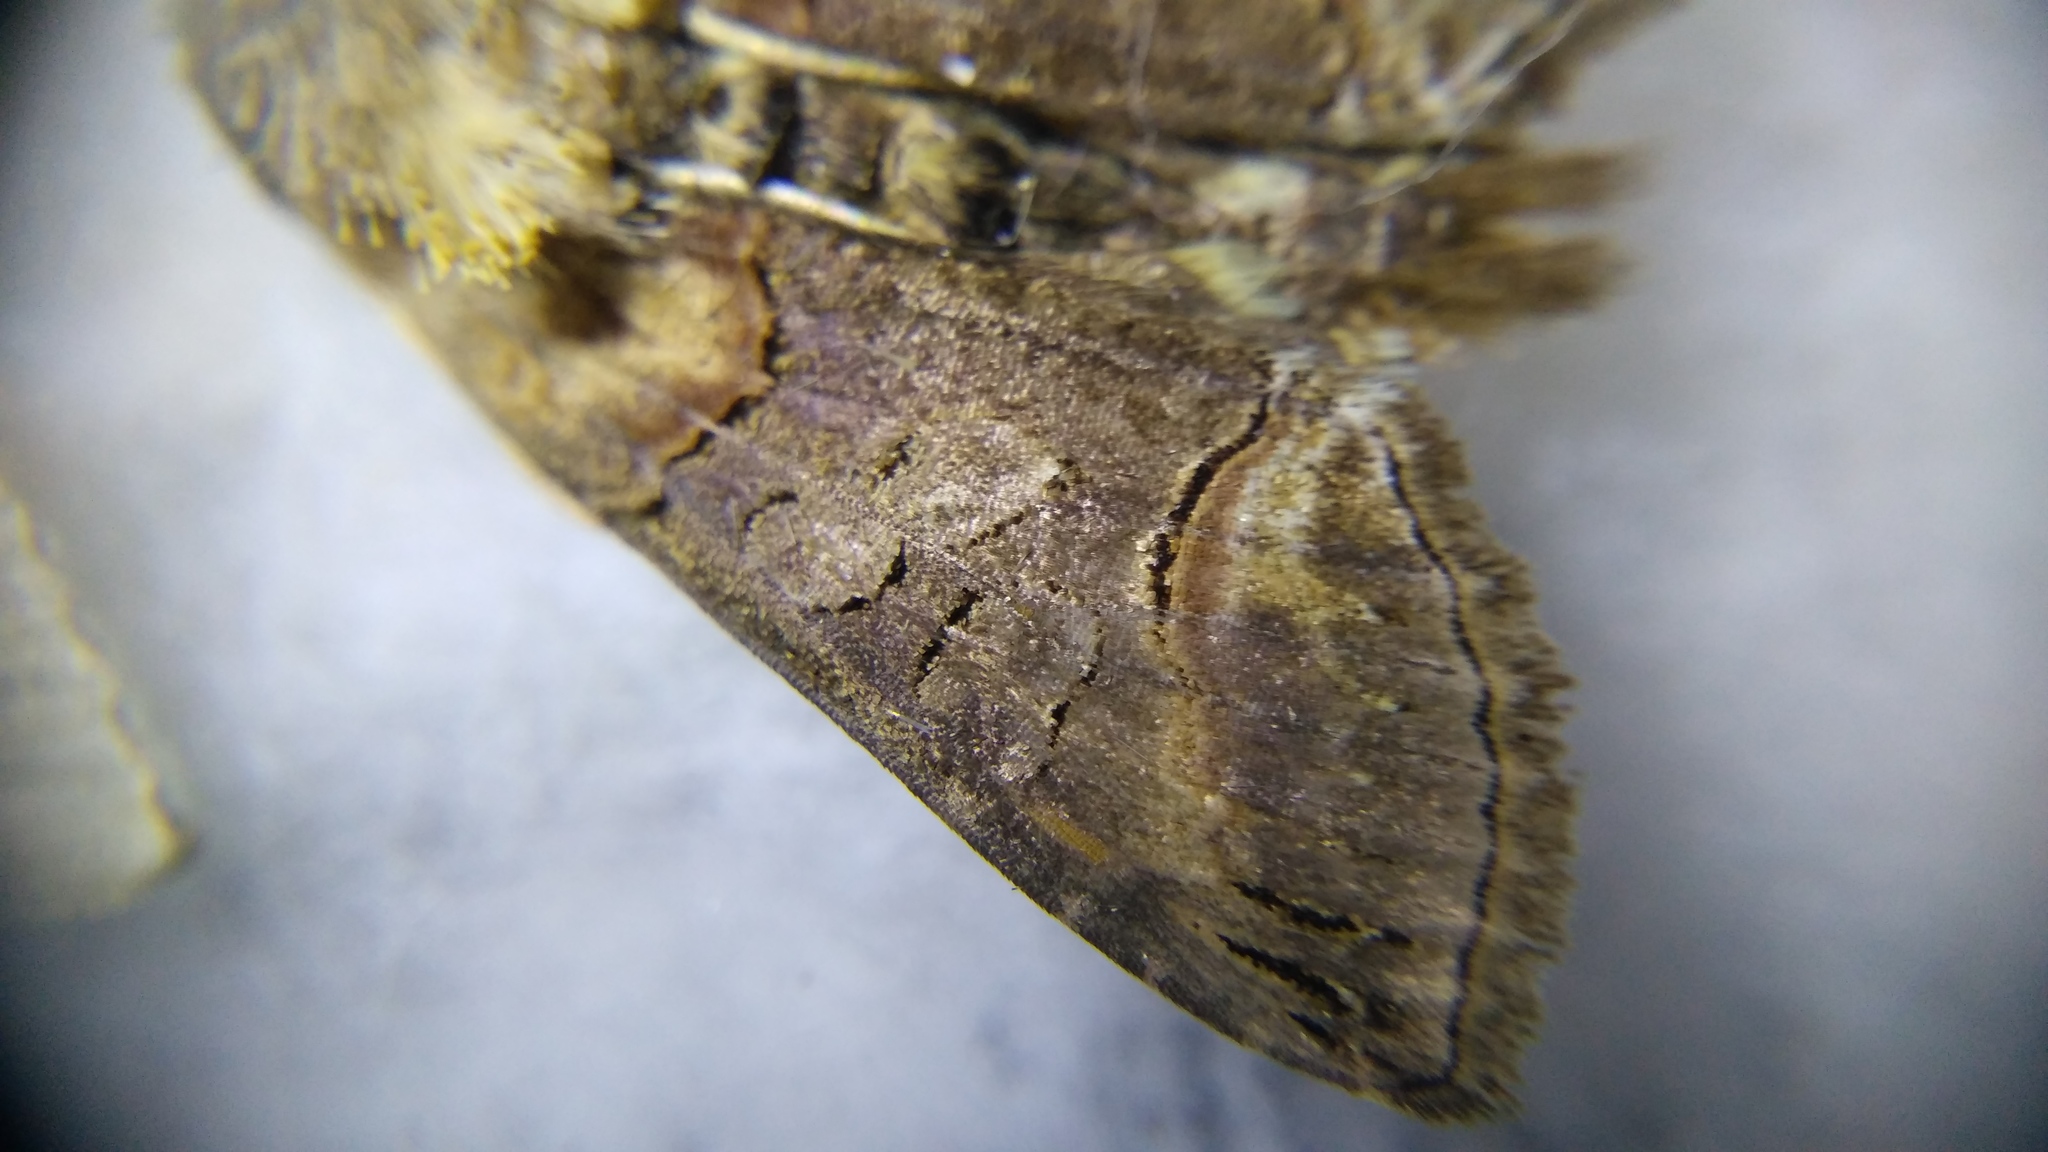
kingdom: Animalia
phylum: Arthropoda
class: Insecta
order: Lepidoptera
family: Noctuidae
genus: Abrostola
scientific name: Abrostola triplasia
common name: Dark spectacle
